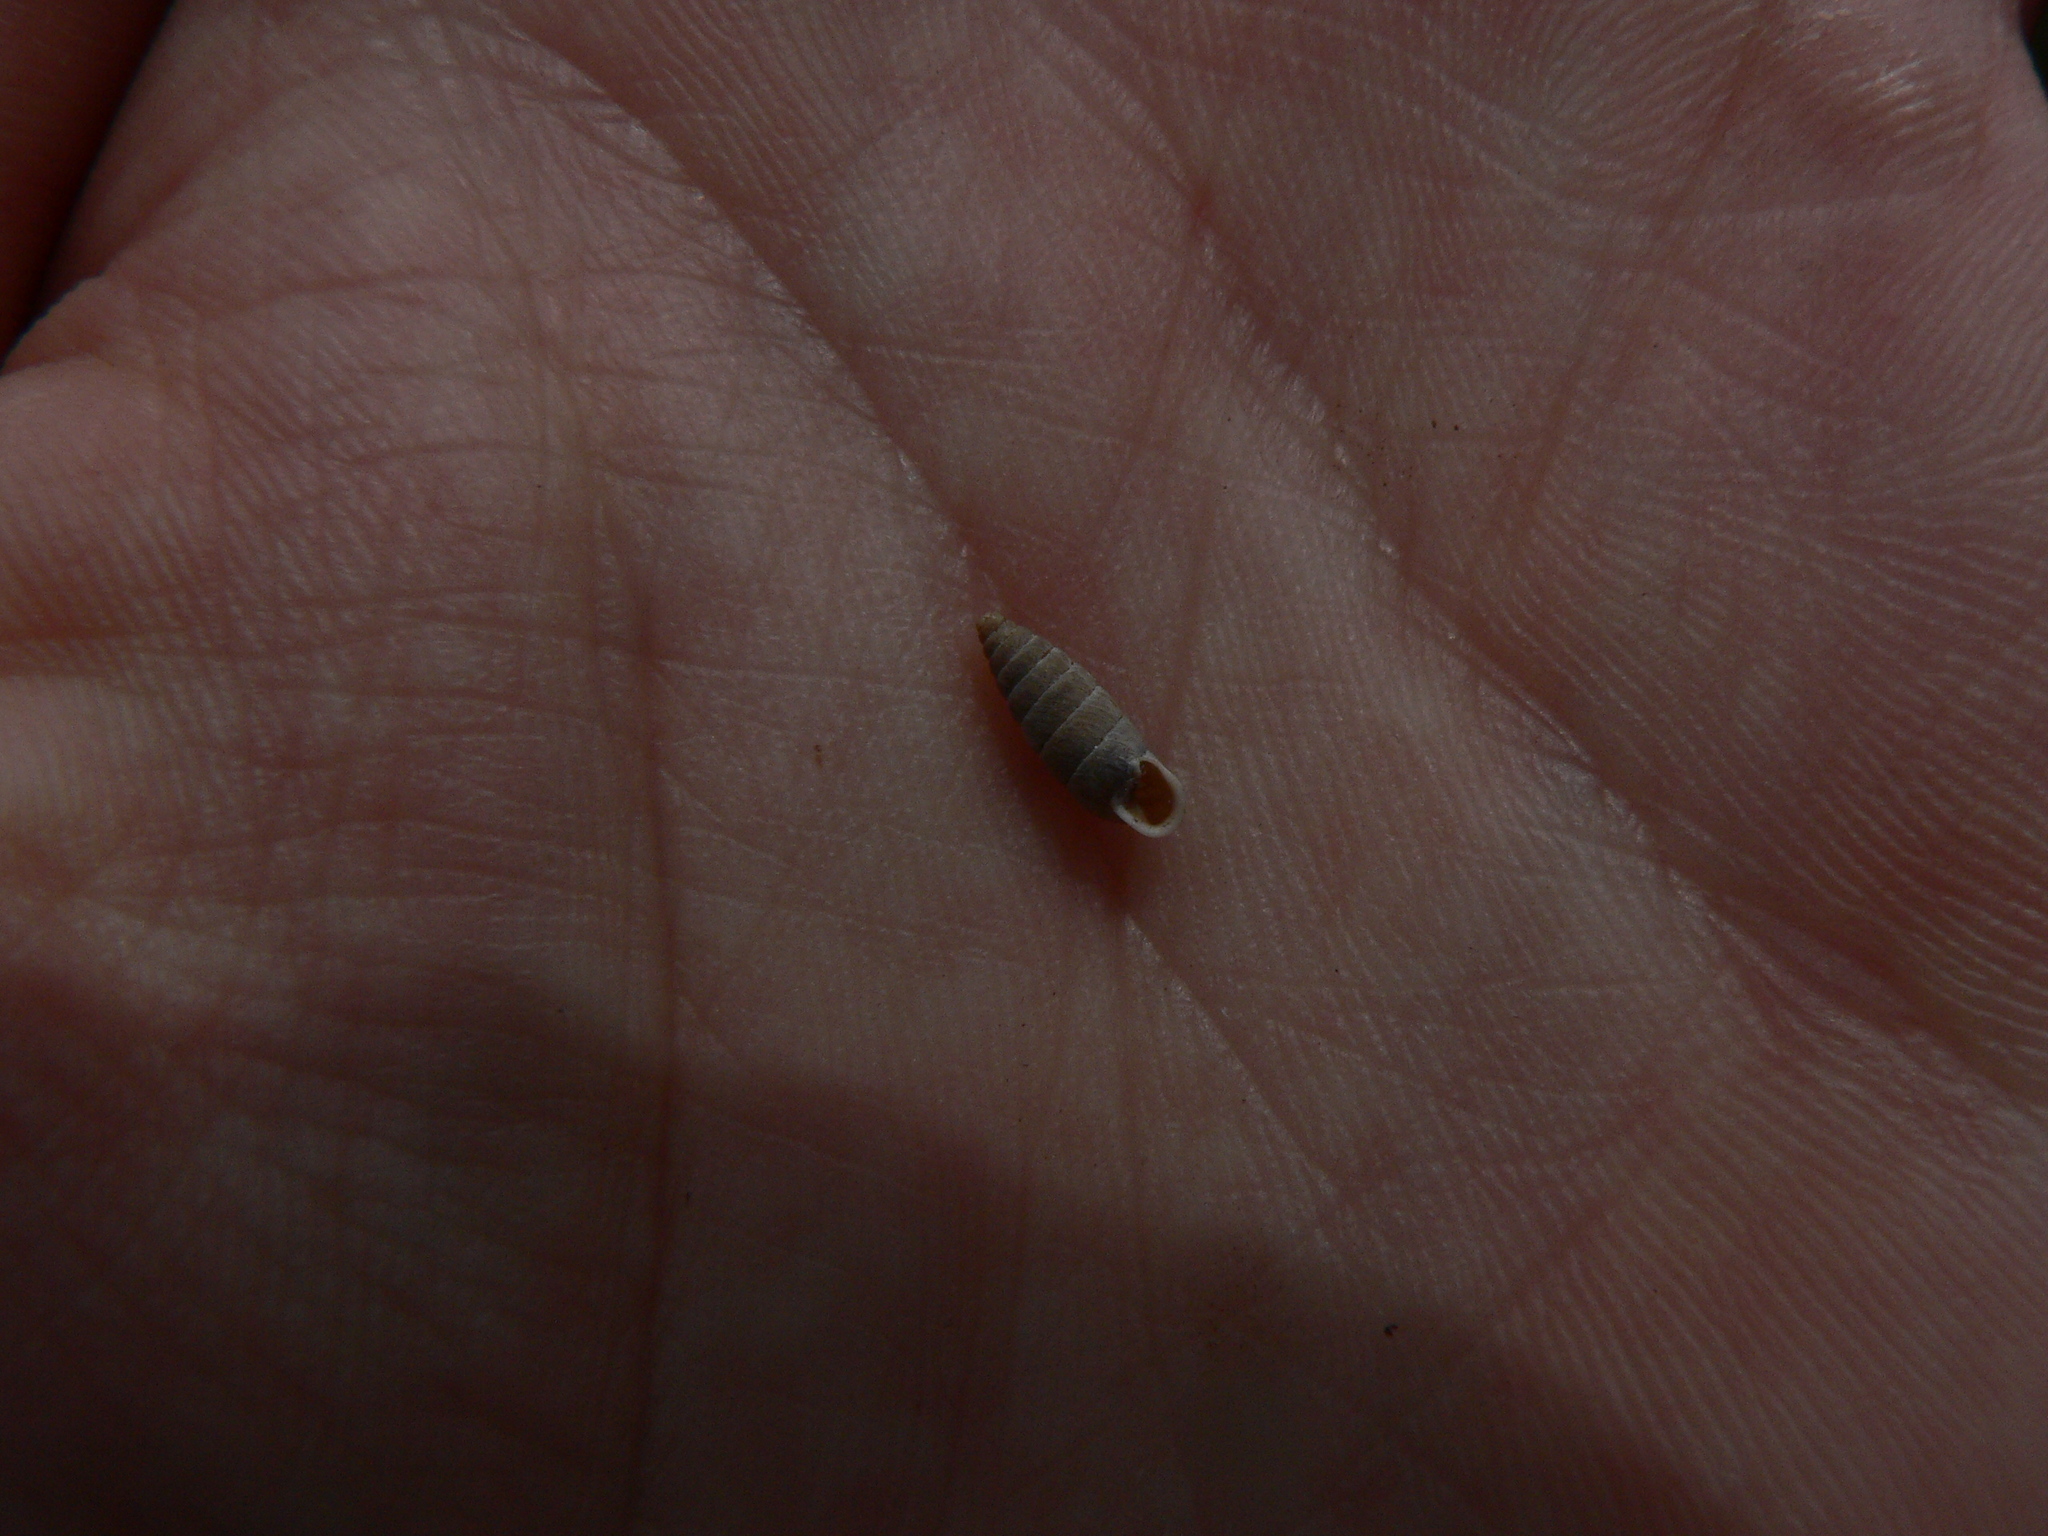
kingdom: Animalia
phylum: Mollusca
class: Gastropoda
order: Stylommatophora
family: Chondrinidae
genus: Granaria
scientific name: Granaria variabilis
